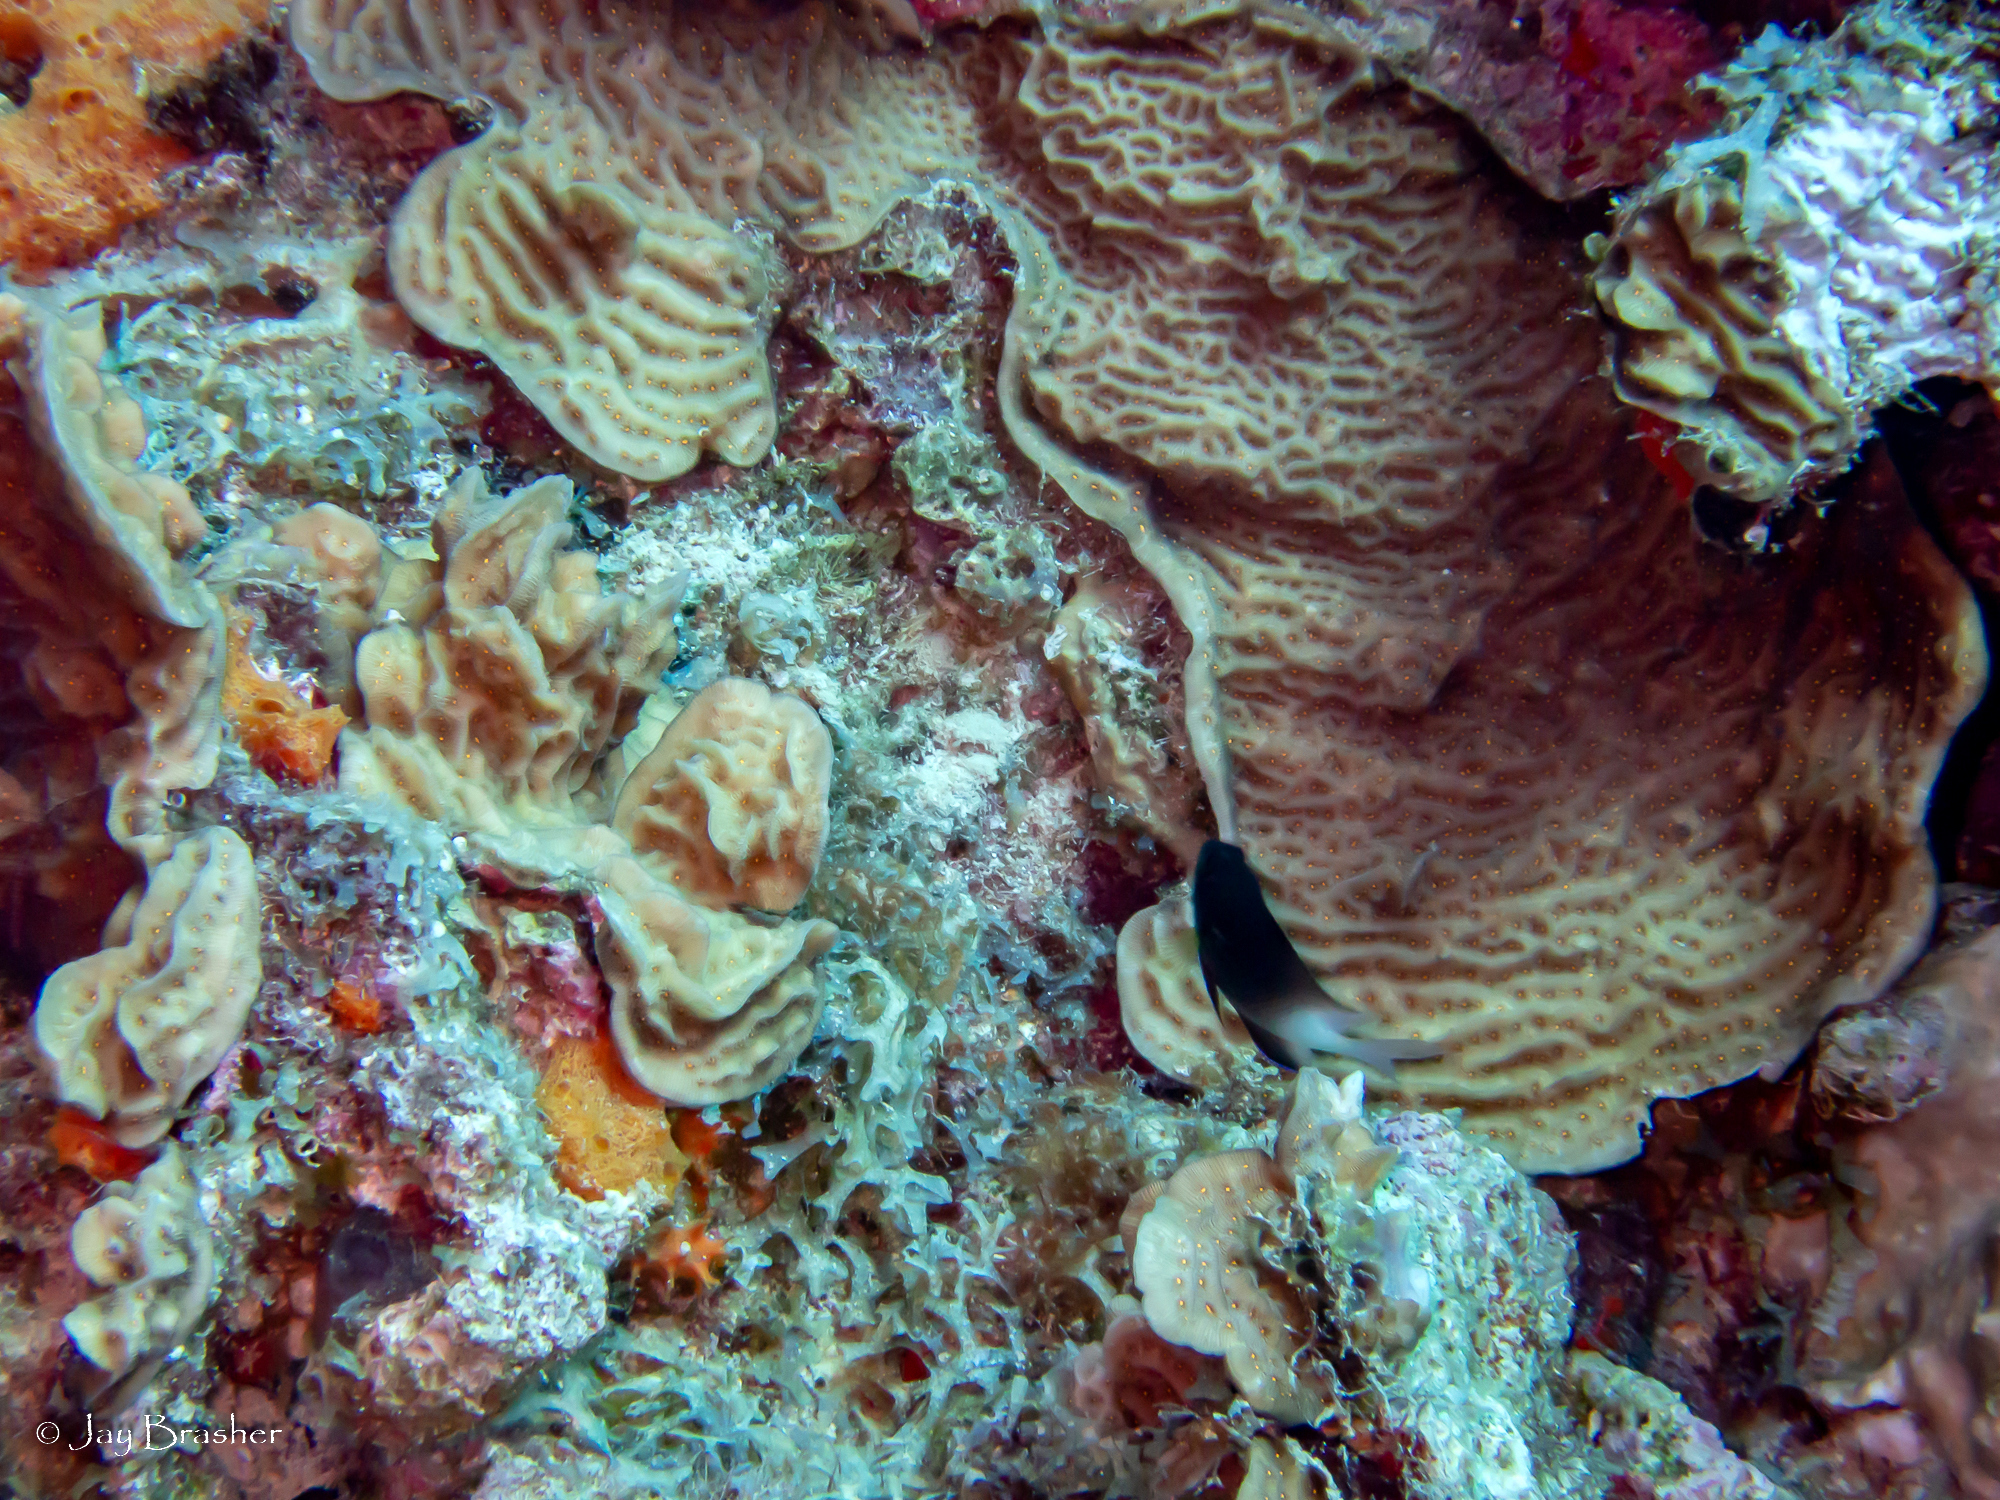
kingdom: Animalia
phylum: Chordata
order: Perciformes
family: Pomacentridae
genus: Stegastes
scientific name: Stegastes partitus
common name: Bicolor damselfish
